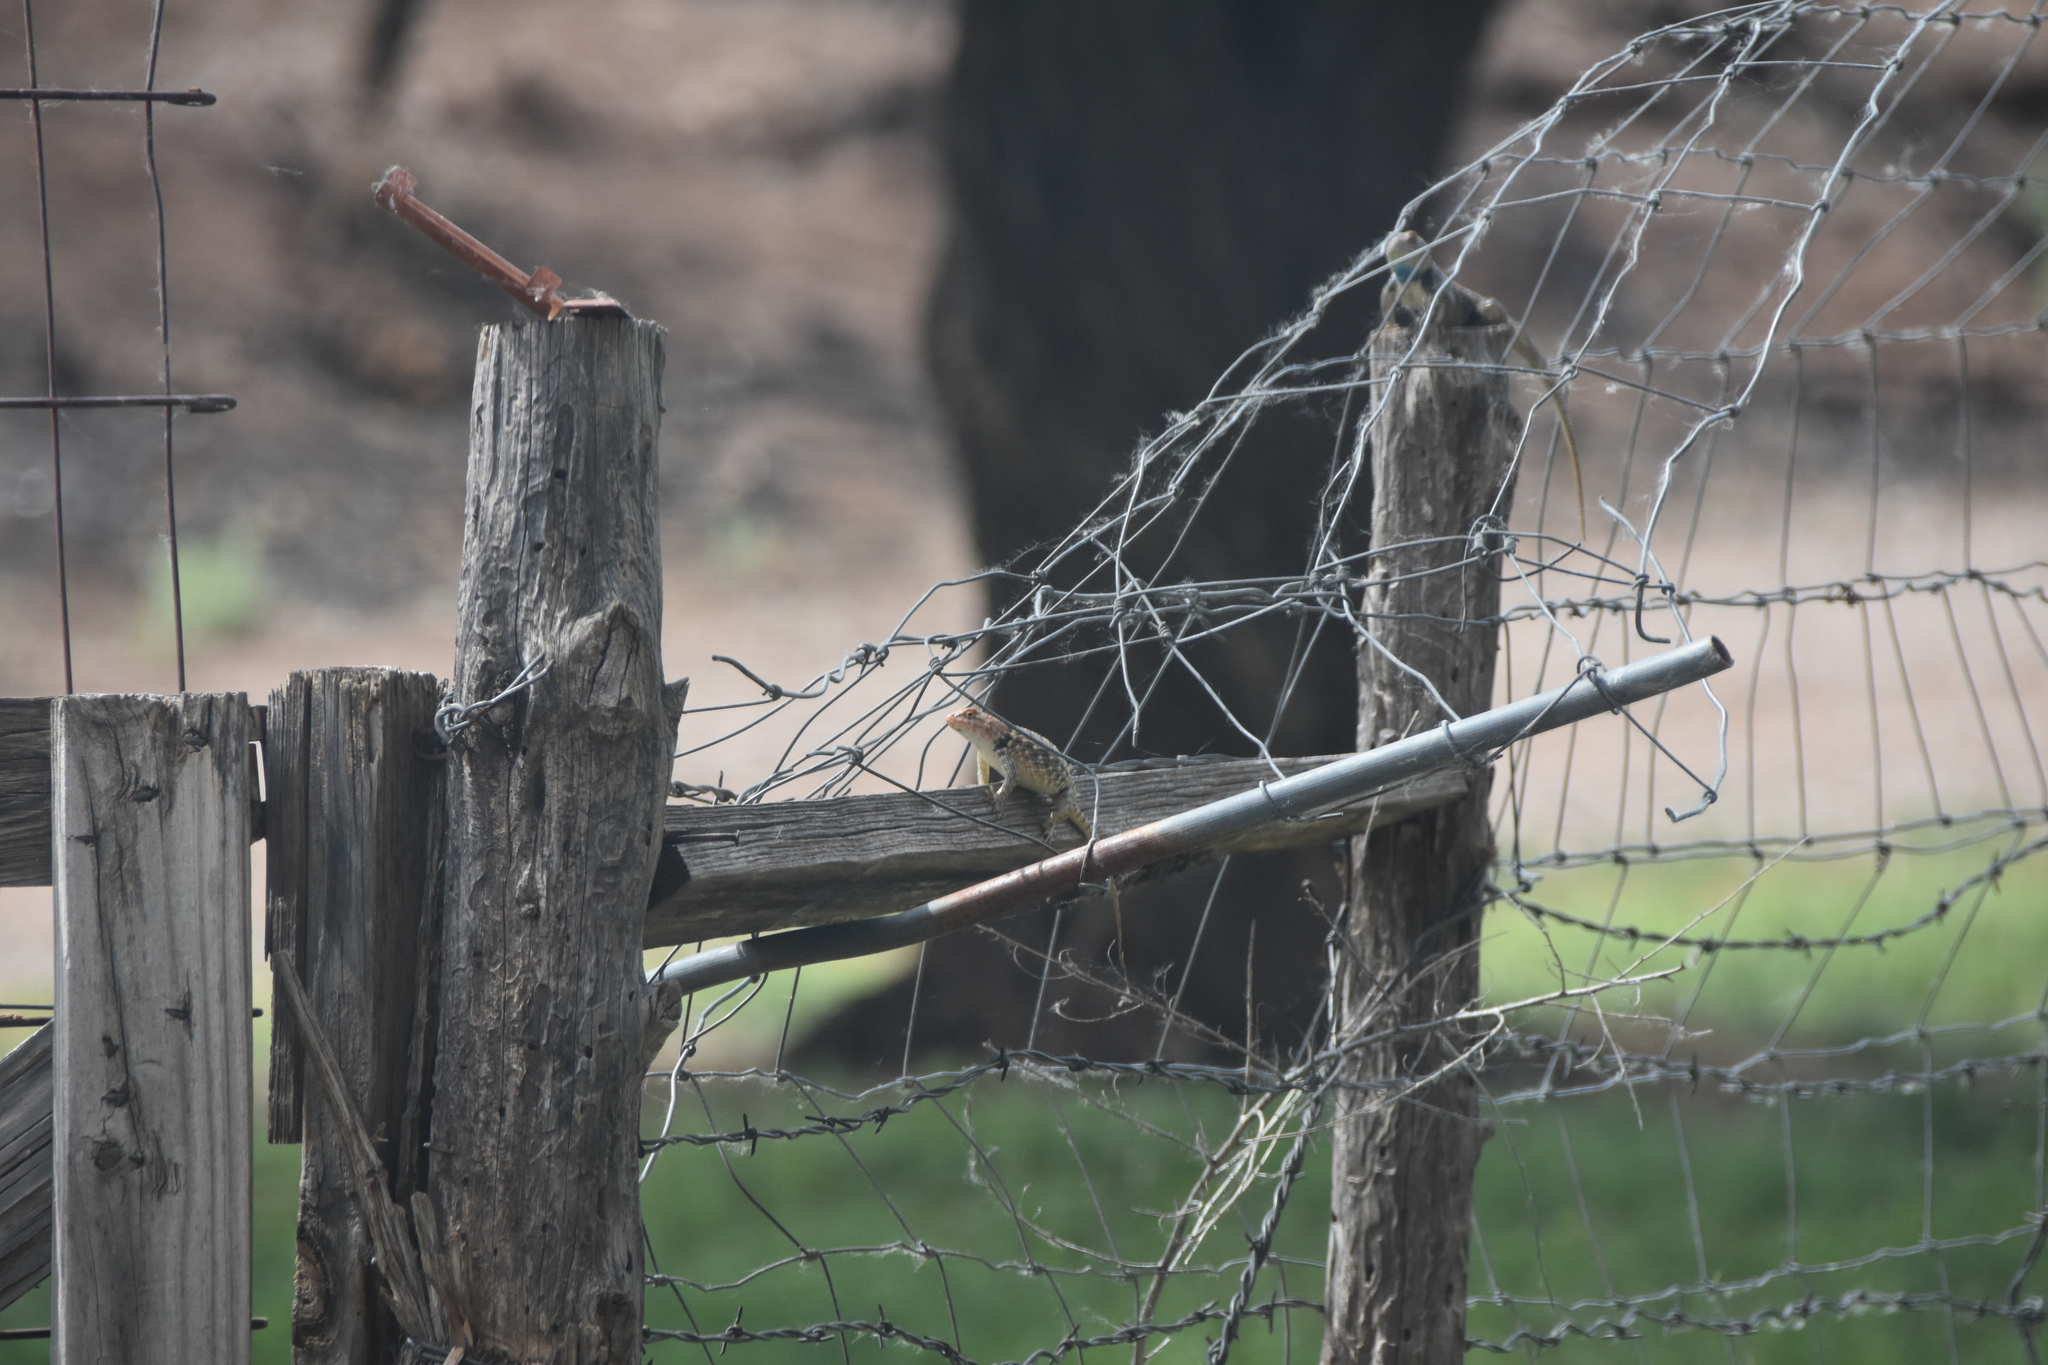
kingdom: Animalia
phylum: Chordata
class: Squamata
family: Phrynosomatidae
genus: Sceloporus
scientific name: Sceloporus bimaculosus
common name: Twin-spotted spiny lizard
